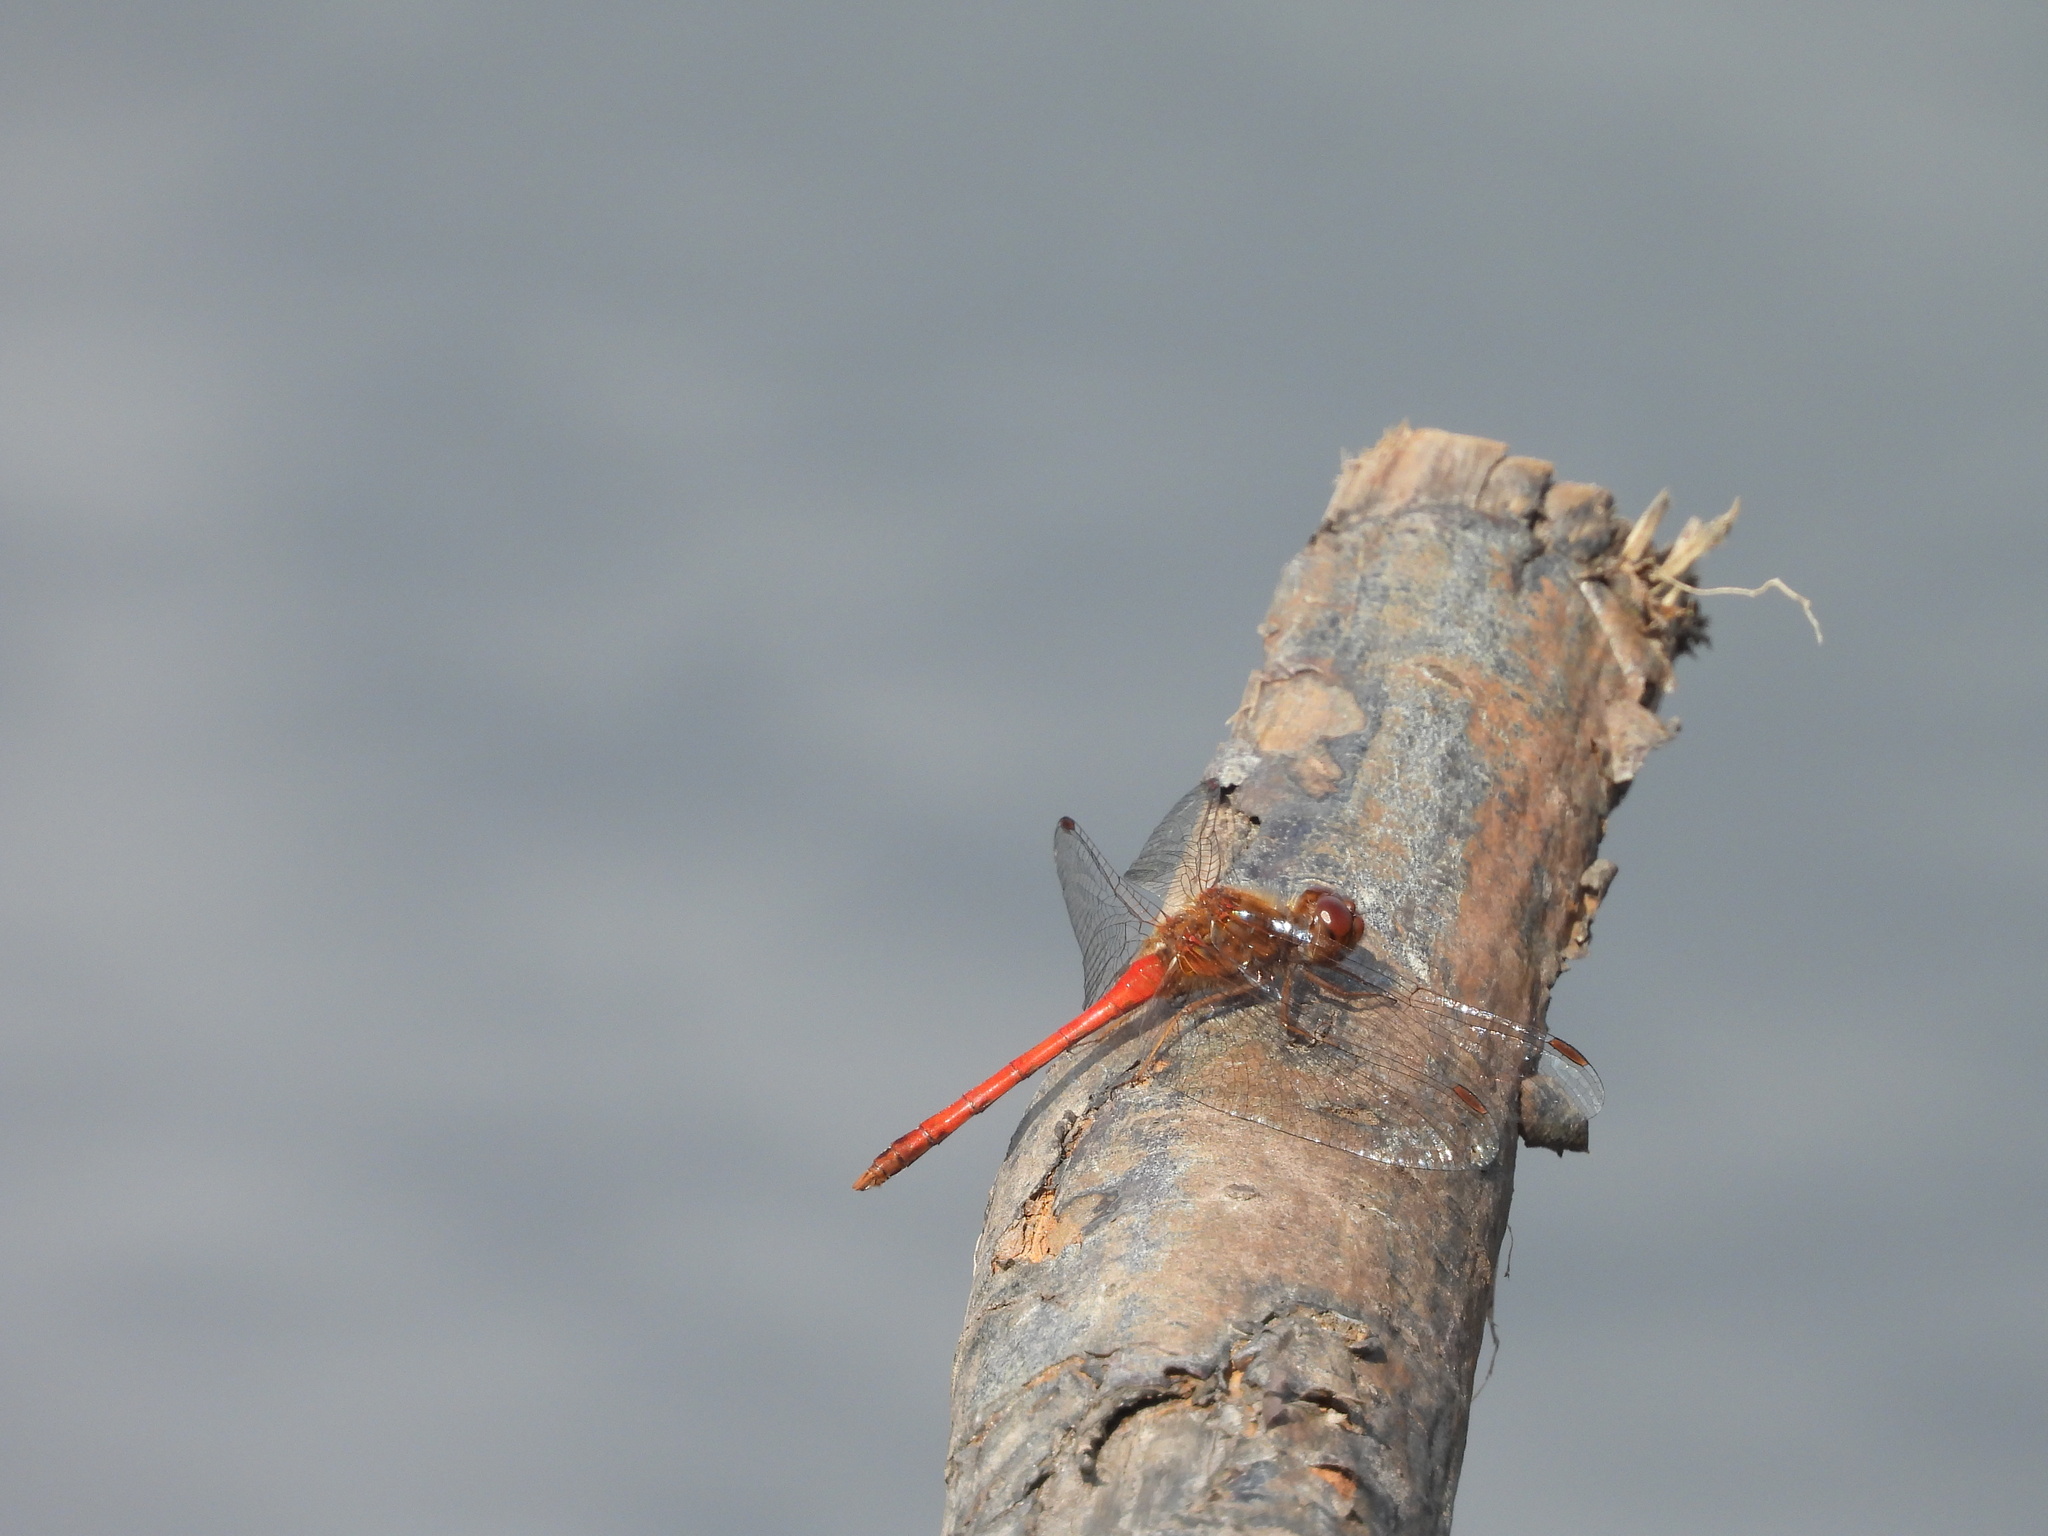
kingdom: Animalia
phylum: Arthropoda
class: Insecta
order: Odonata
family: Libellulidae
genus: Sympetrum
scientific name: Sympetrum vicinum
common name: Autumn meadowhawk
